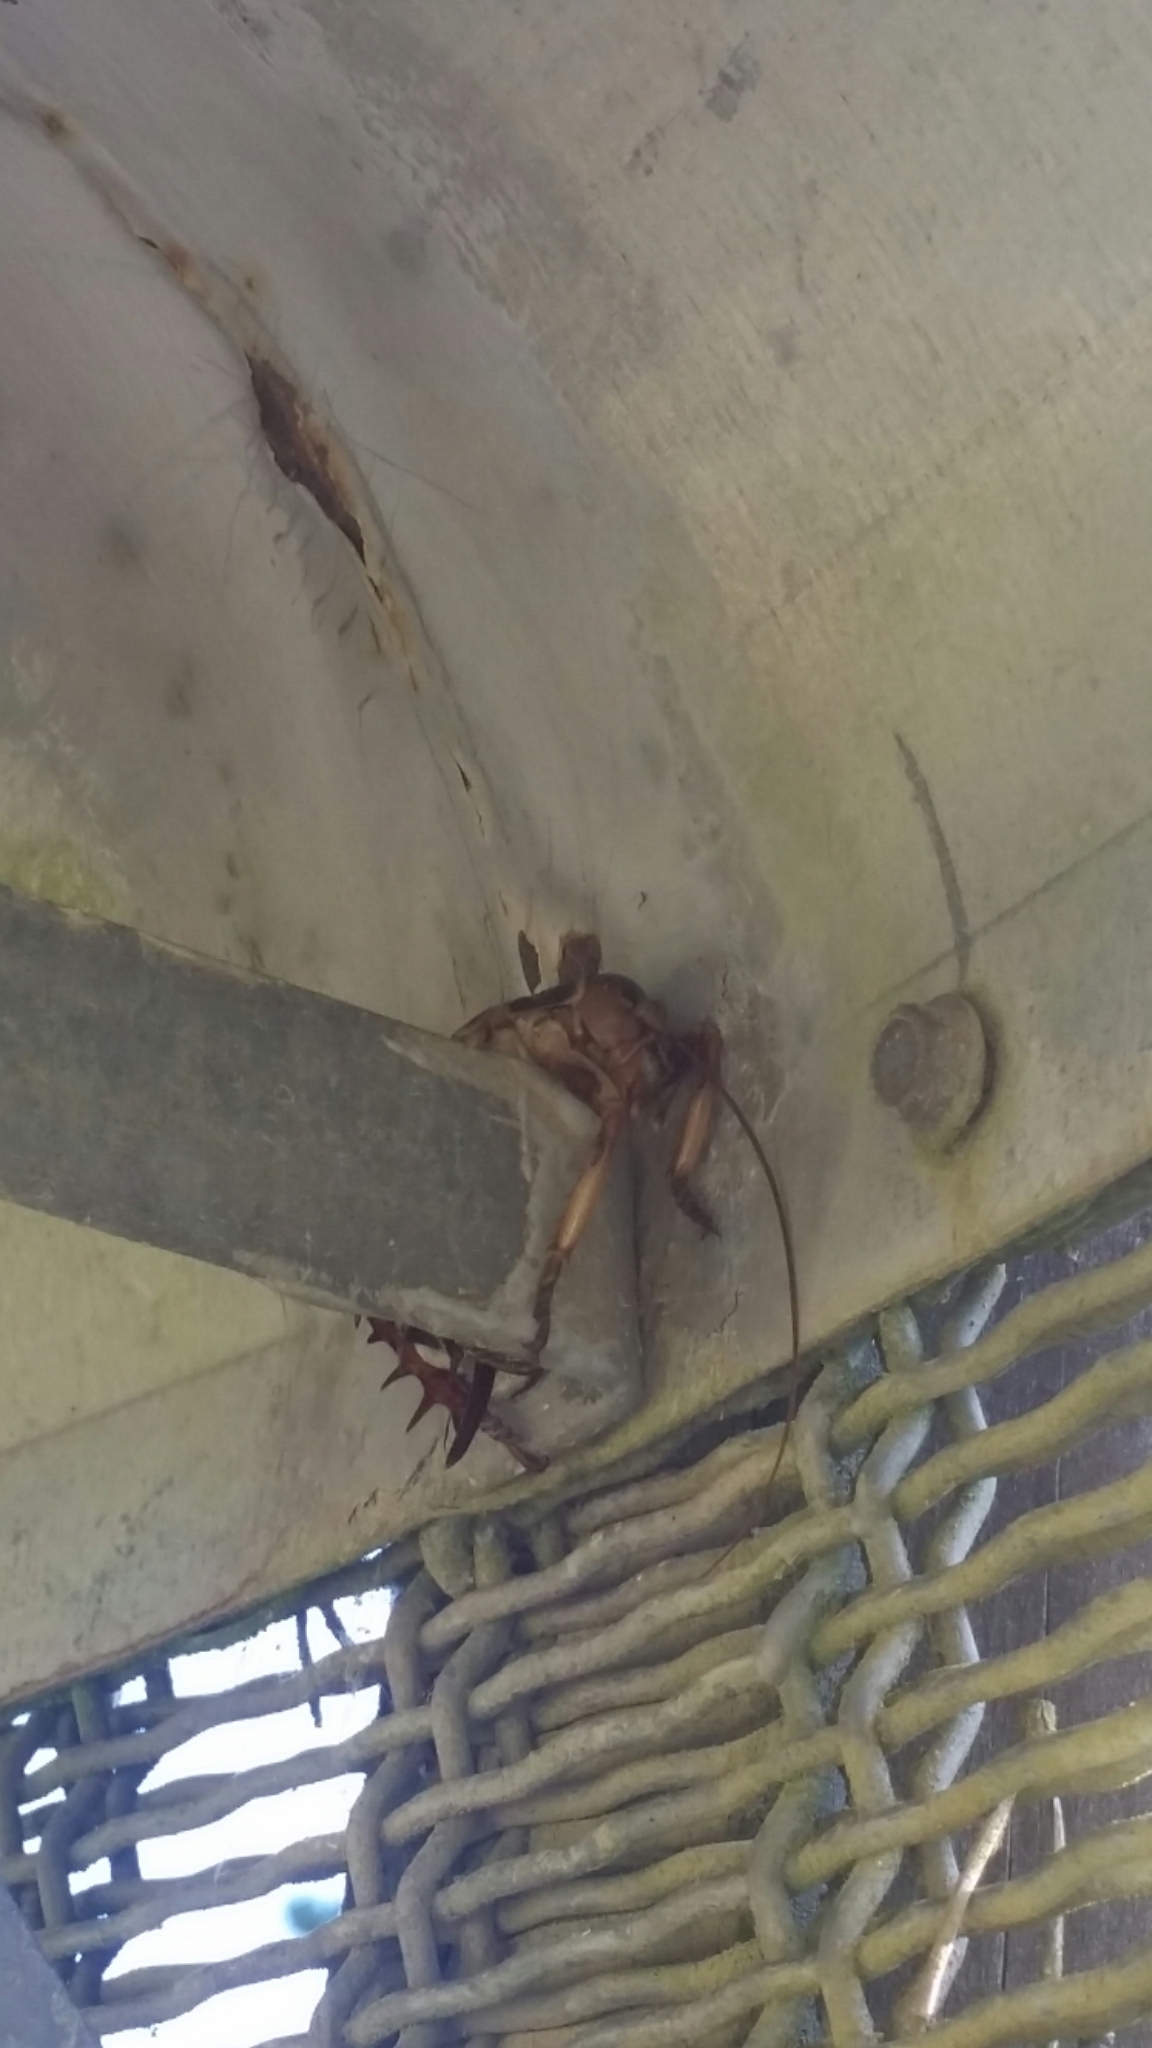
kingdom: Animalia
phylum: Arthropoda
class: Insecta
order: Orthoptera
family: Anostostomatidae
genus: Hemideina
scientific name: Hemideina crassidens
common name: Wellington tree weta
